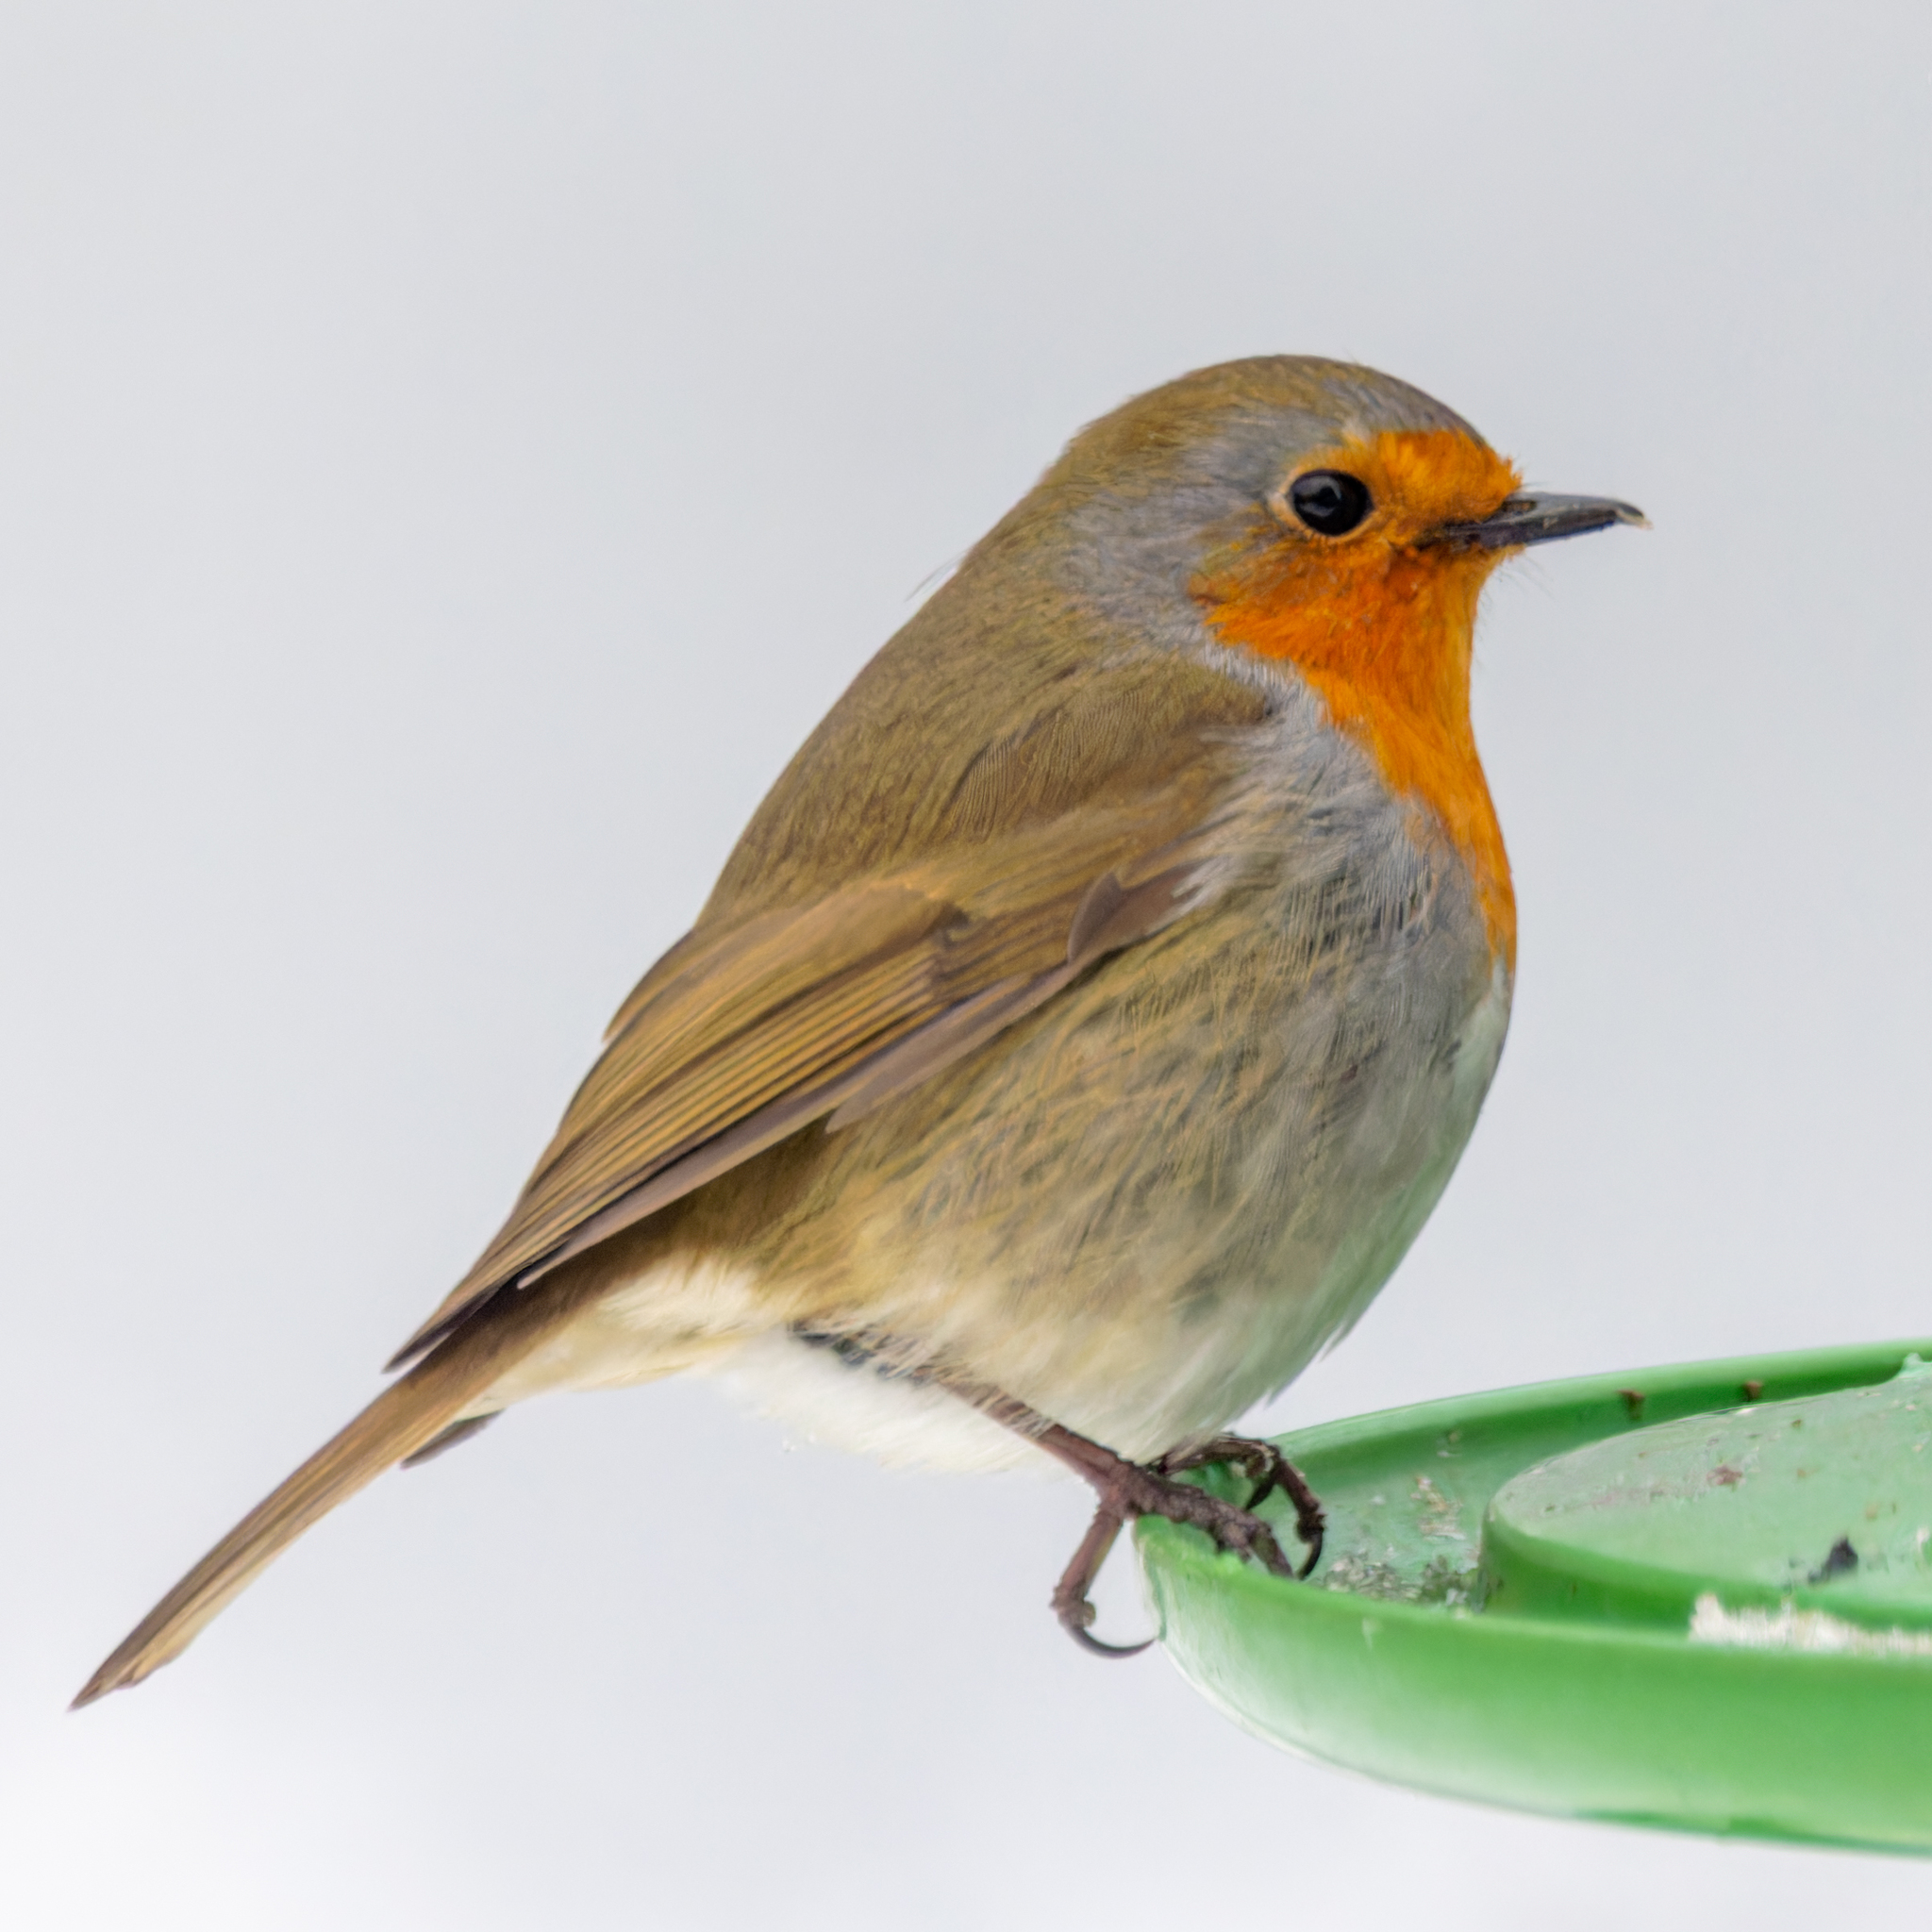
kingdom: Animalia
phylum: Chordata
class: Aves
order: Passeriformes
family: Muscicapidae
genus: Erithacus
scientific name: Erithacus rubecula
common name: European robin
